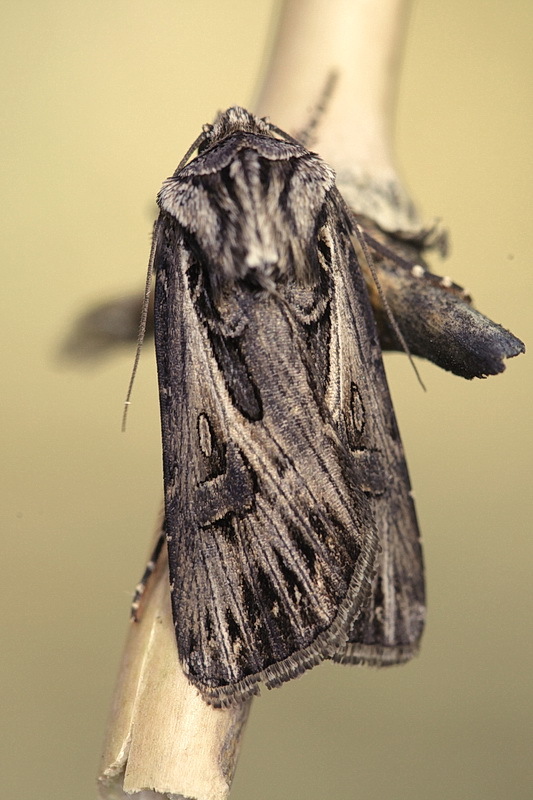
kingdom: Animalia
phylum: Arthropoda
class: Insecta
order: Lepidoptera
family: Noctuidae
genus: Agrotis
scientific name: Agrotis vestigialis
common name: Archer's dart
